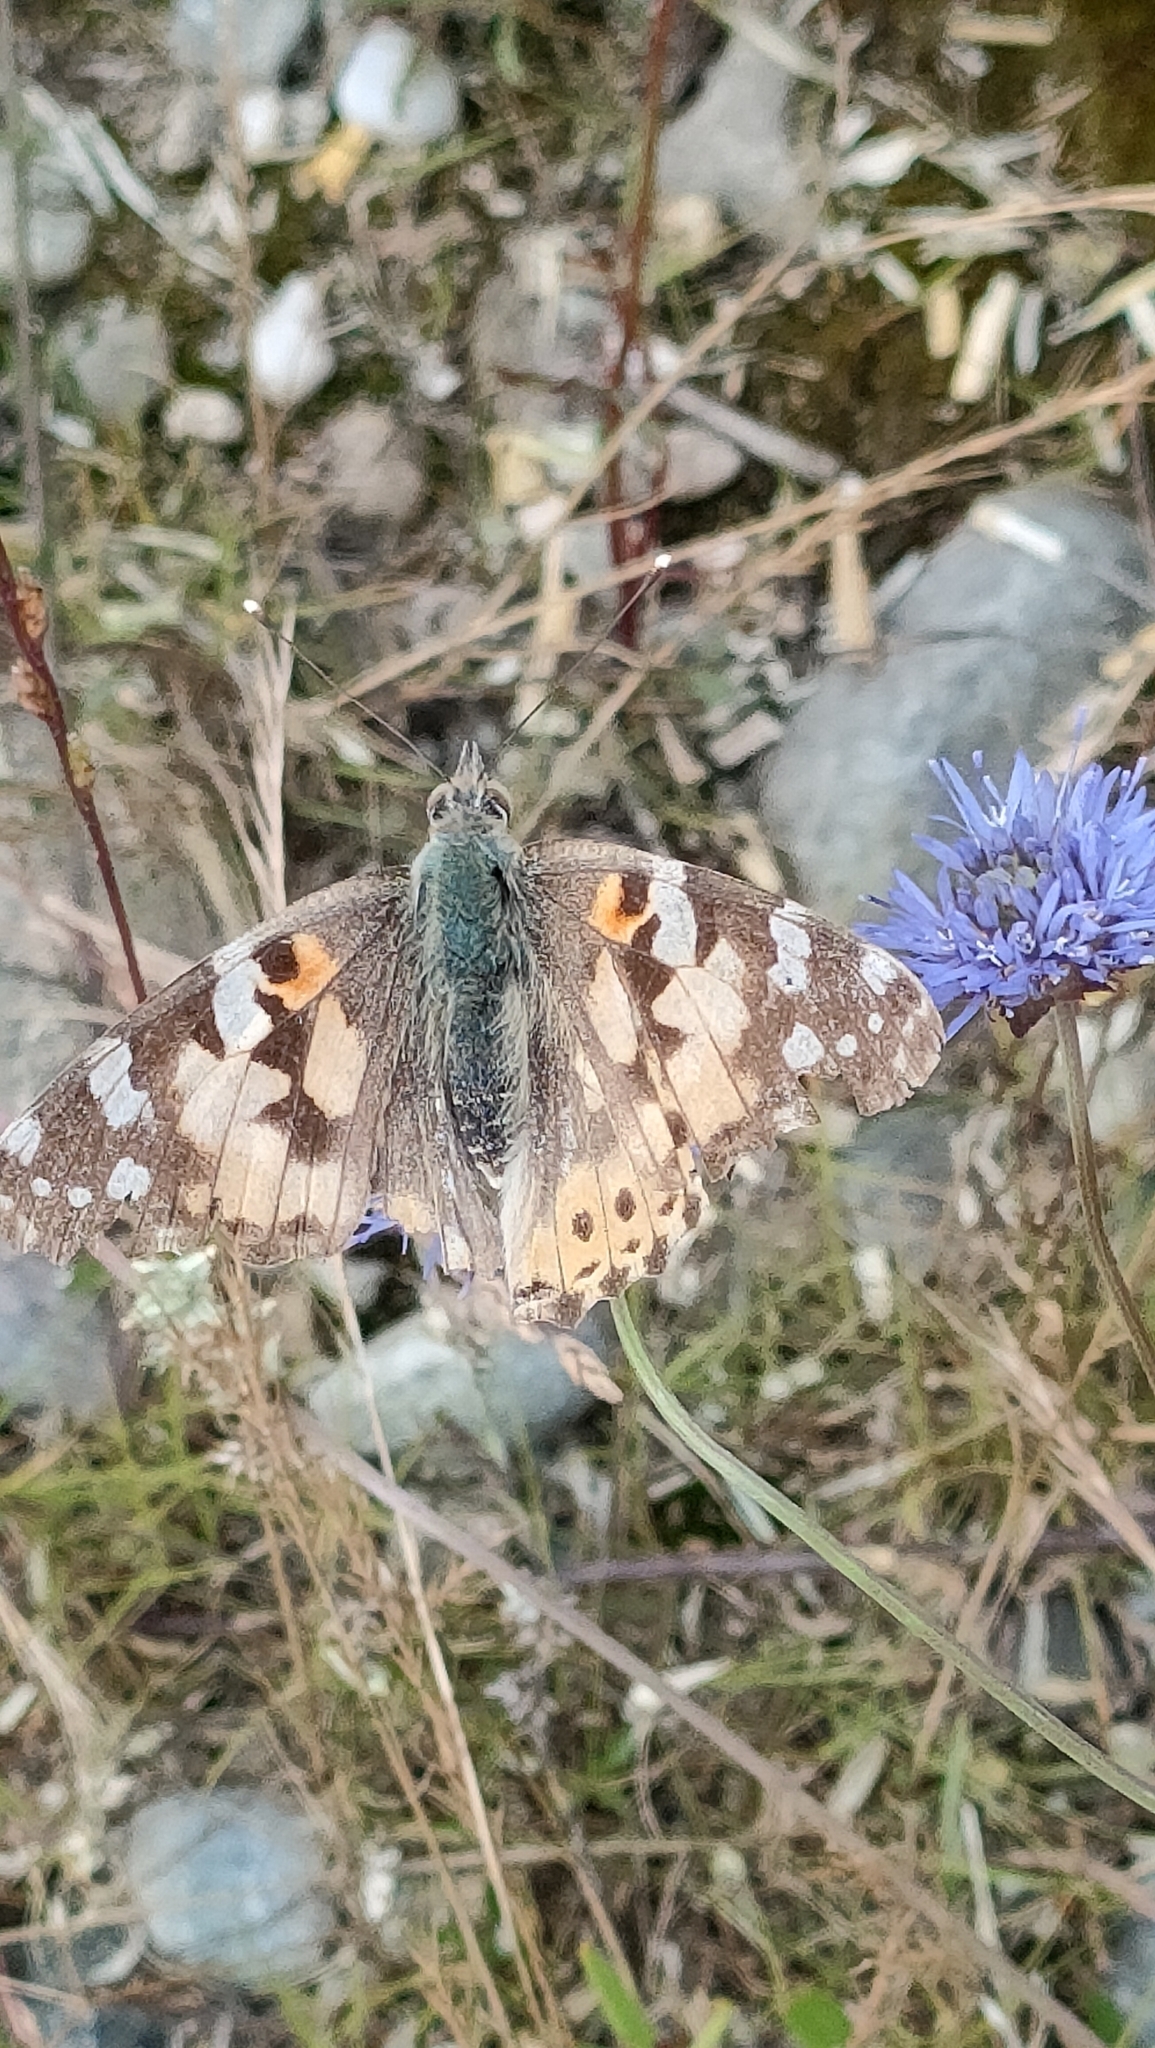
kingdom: Animalia
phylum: Arthropoda
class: Insecta
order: Lepidoptera
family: Nymphalidae
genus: Vanessa
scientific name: Vanessa cardui
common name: Painted lady
